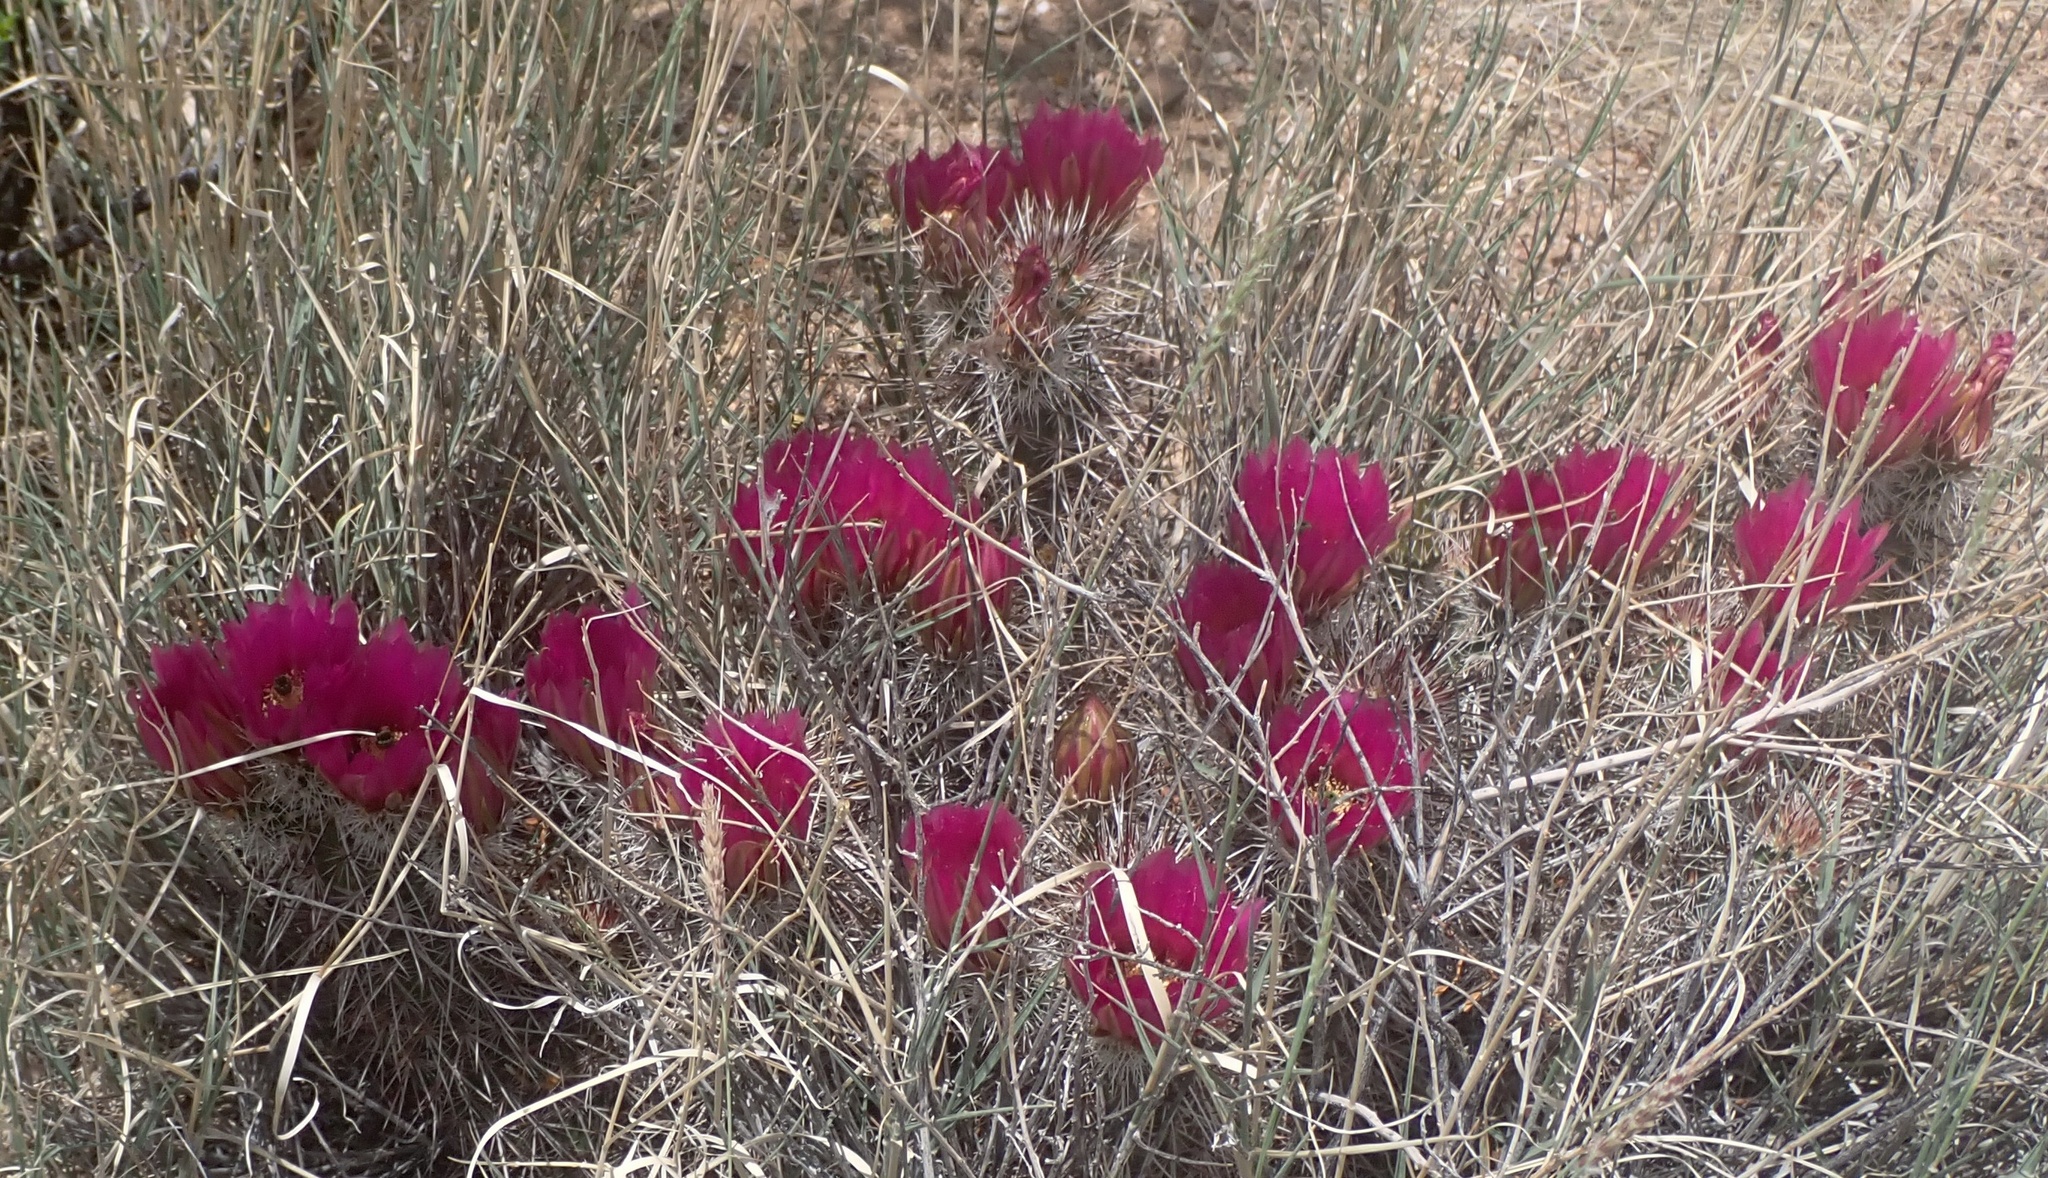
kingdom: Plantae
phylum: Tracheophyta
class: Magnoliopsida
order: Caryophyllales
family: Cactaceae
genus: Echinocereus
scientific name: Echinocereus engelmannii
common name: Engelmann's hedgehog cactus
